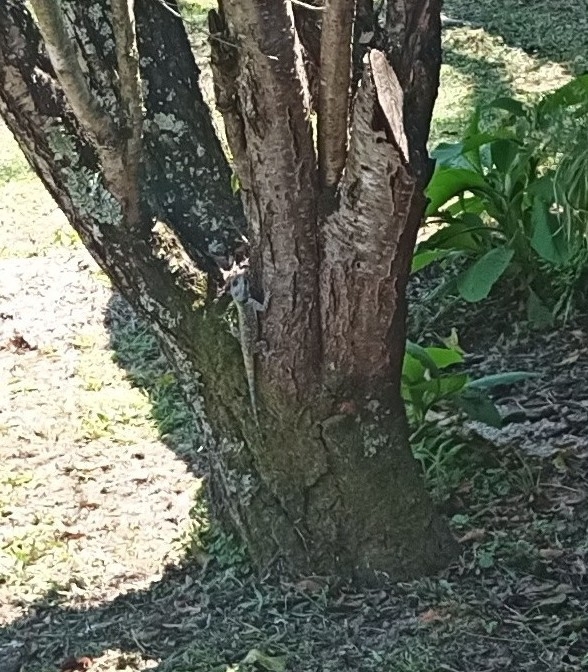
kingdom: Animalia
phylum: Chordata
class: Squamata
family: Agamidae
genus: Acanthocercus
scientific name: Acanthocercus atricollis
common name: Southern tree agama
